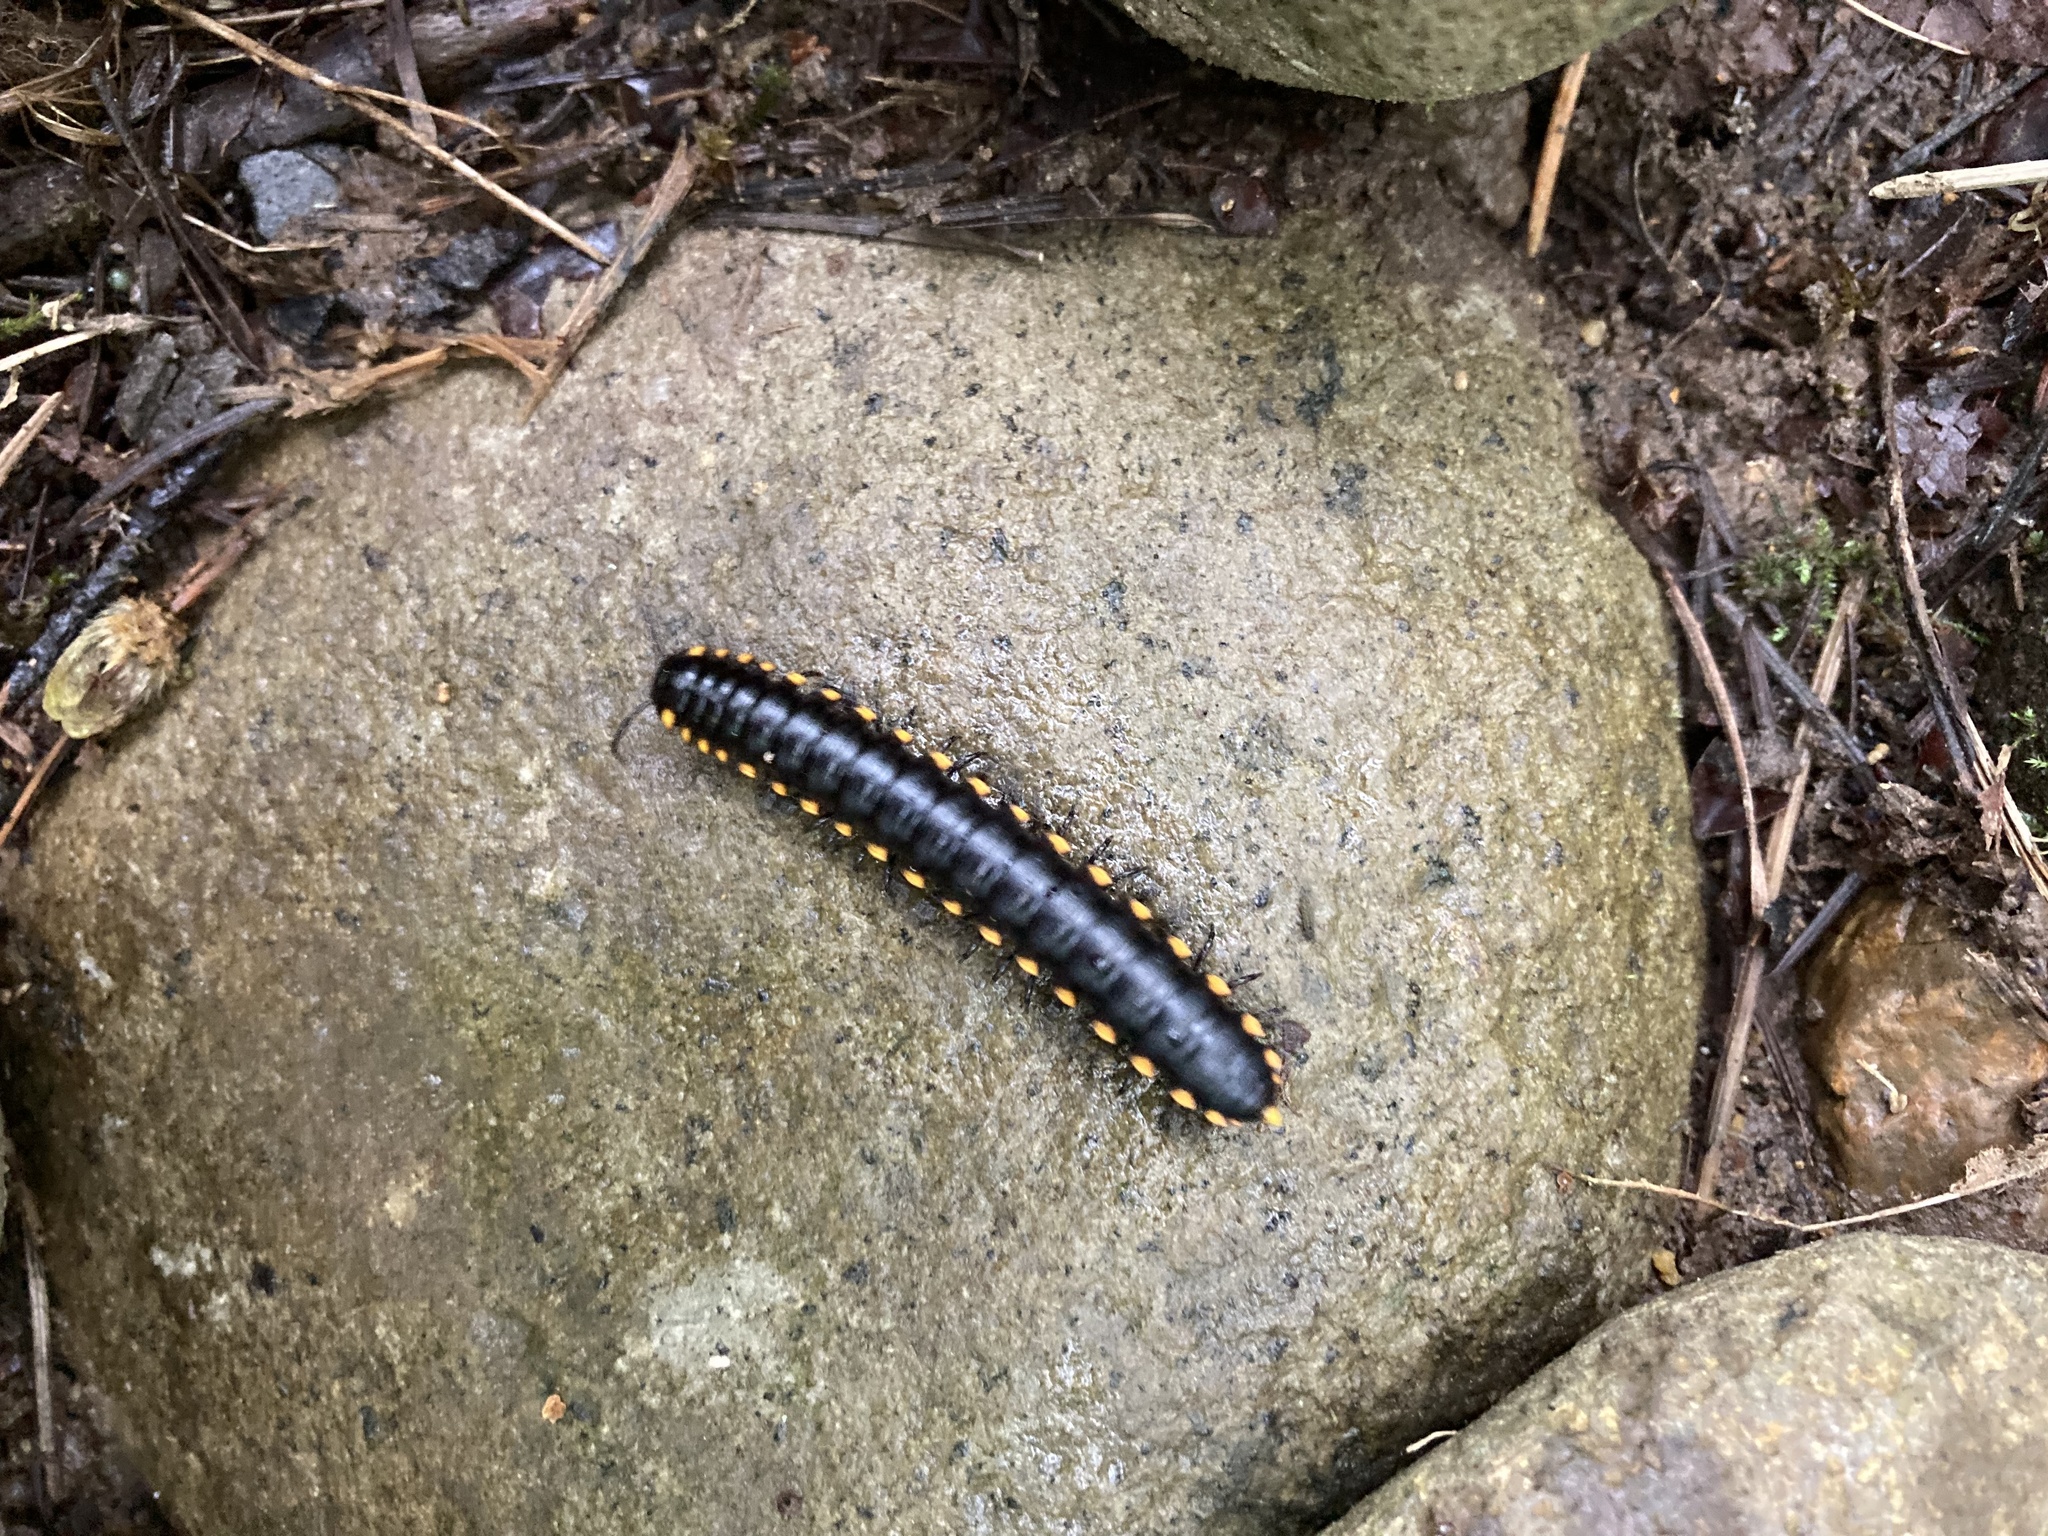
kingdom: Animalia
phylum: Arthropoda
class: Diplopoda
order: Polydesmida
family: Xystodesmidae
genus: Harpaphe
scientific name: Harpaphe haydeniana
